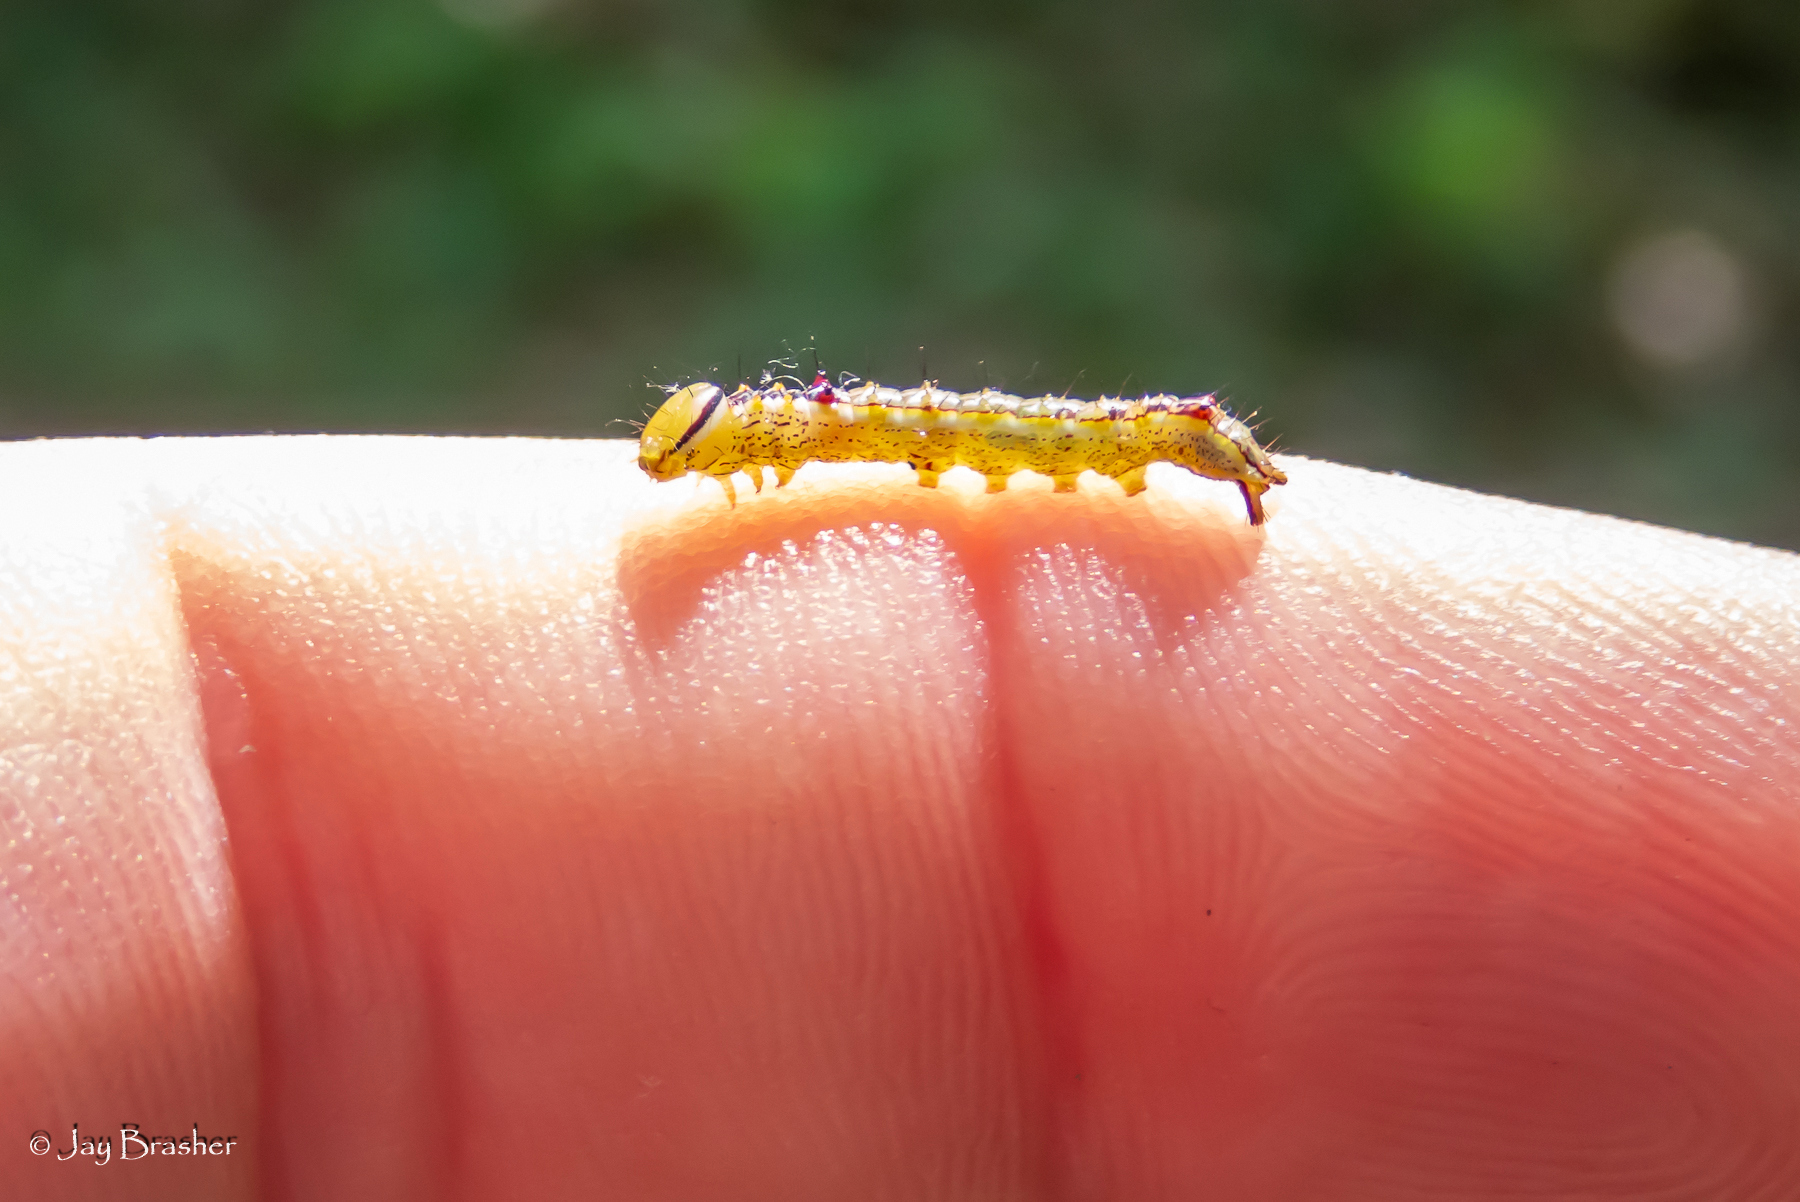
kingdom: Animalia
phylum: Arthropoda
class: Insecta
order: Lepidoptera
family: Notodontidae
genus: Lochmaeus
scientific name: Lochmaeus manteo
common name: Variable oakleaf caterpillar moth
